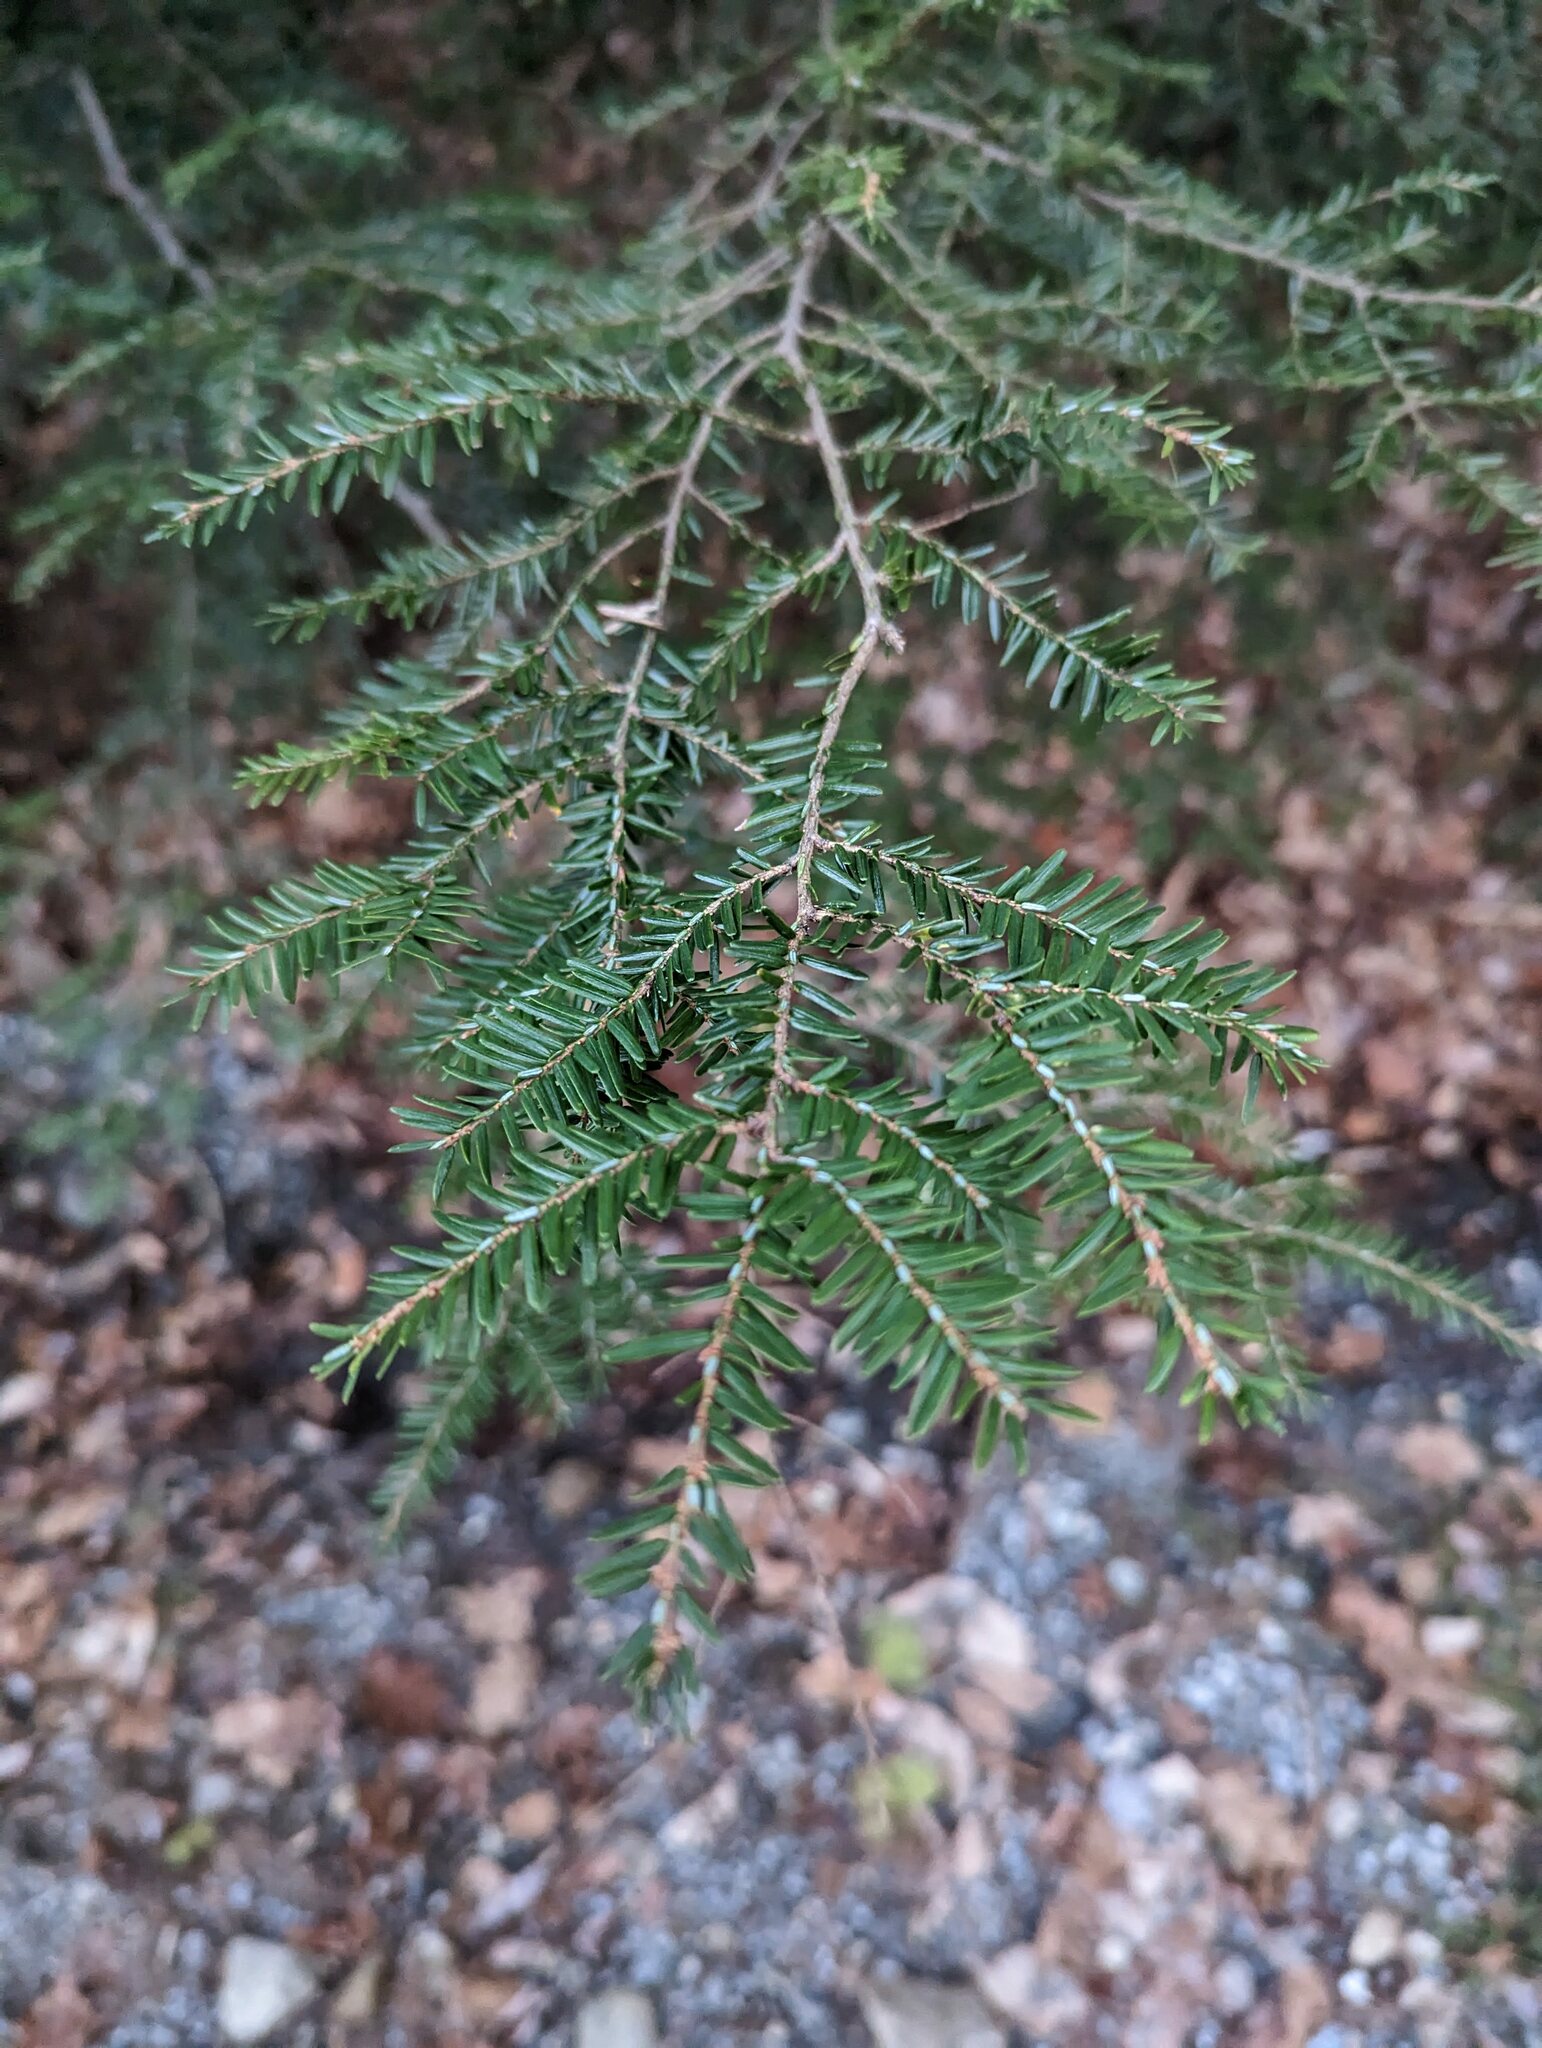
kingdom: Plantae
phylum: Tracheophyta
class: Pinopsida
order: Pinales
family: Pinaceae
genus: Tsuga
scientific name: Tsuga canadensis
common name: Eastern hemlock
